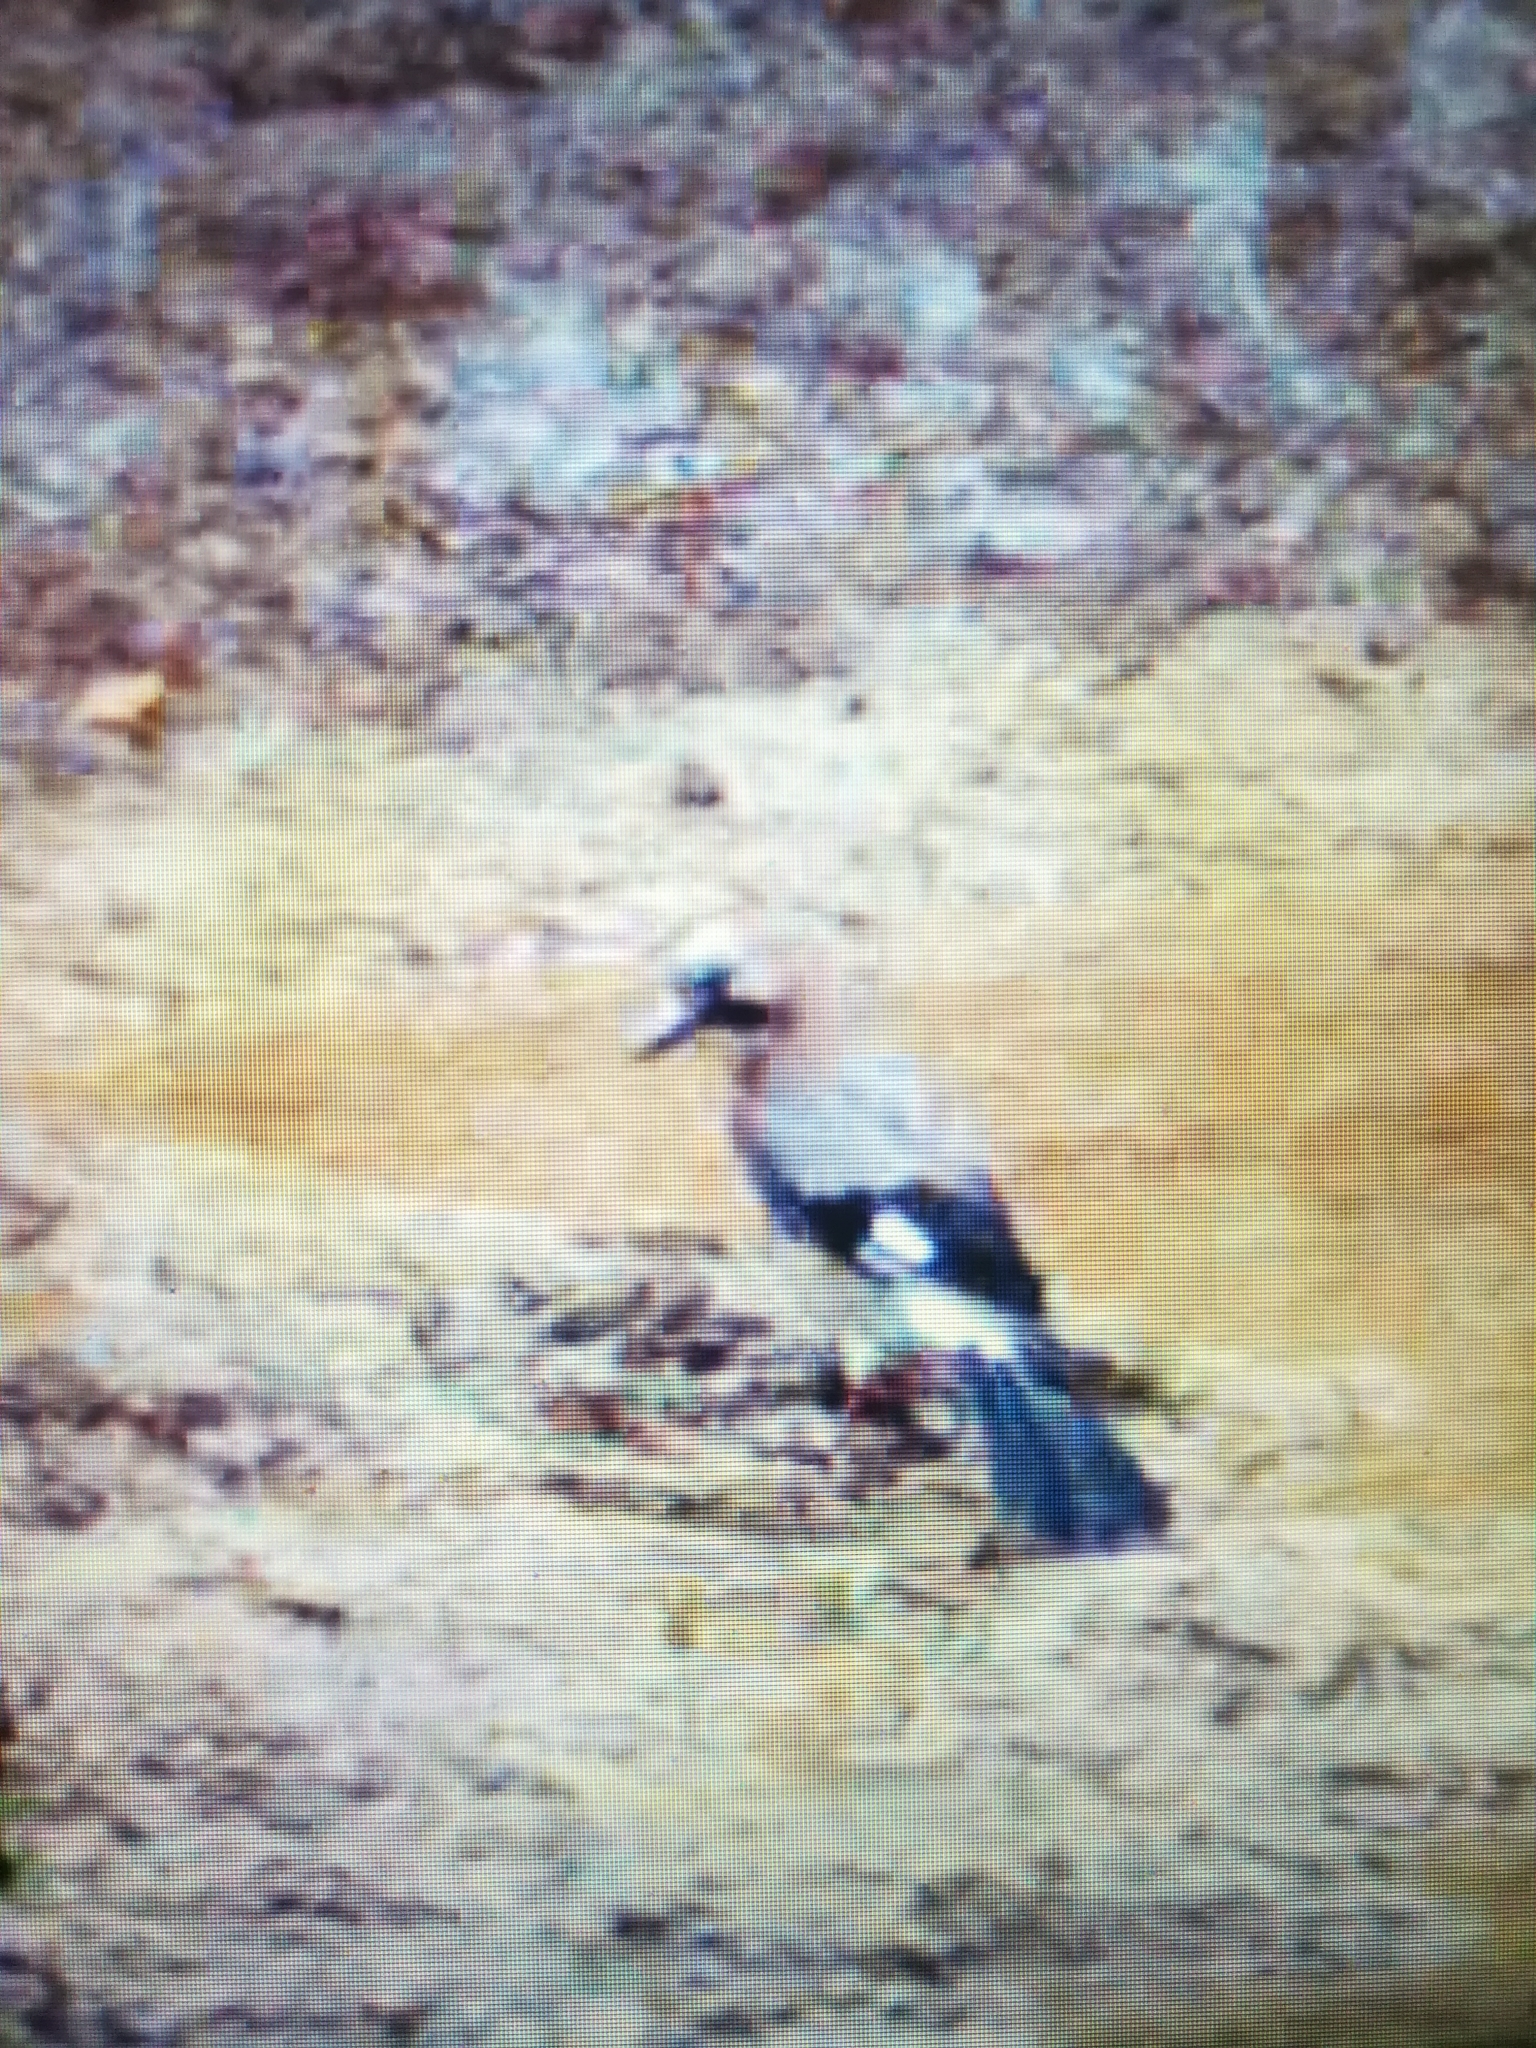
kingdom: Animalia
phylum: Chordata
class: Aves
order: Passeriformes
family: Corvidae
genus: Garrulus
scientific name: Garrulus glandarius
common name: Eurasian jay
